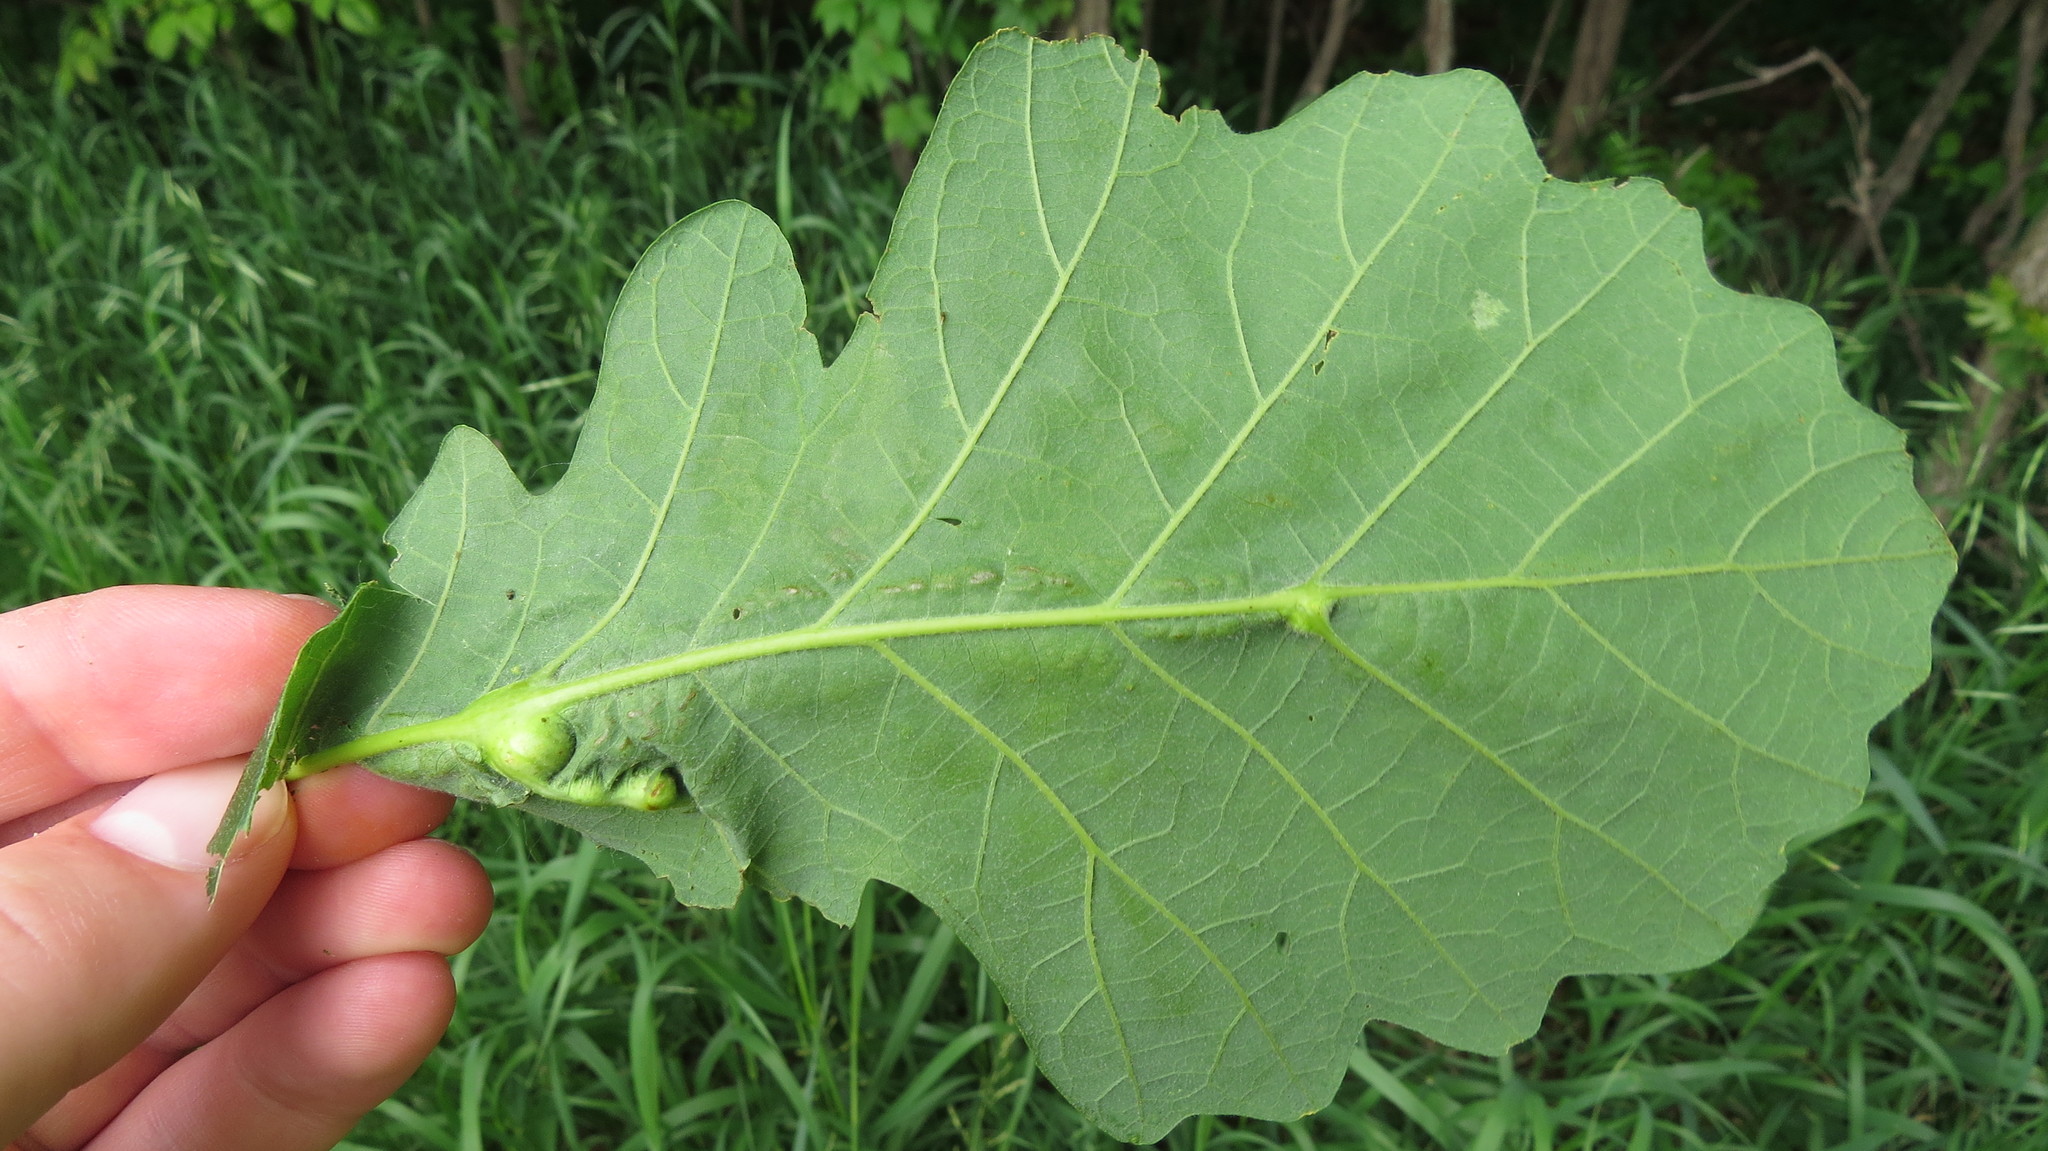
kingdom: Animalia
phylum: Arthropoda
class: Insecta
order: Hymenoptera
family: Cynipidae
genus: Bassettia
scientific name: Bassettia flavipes
